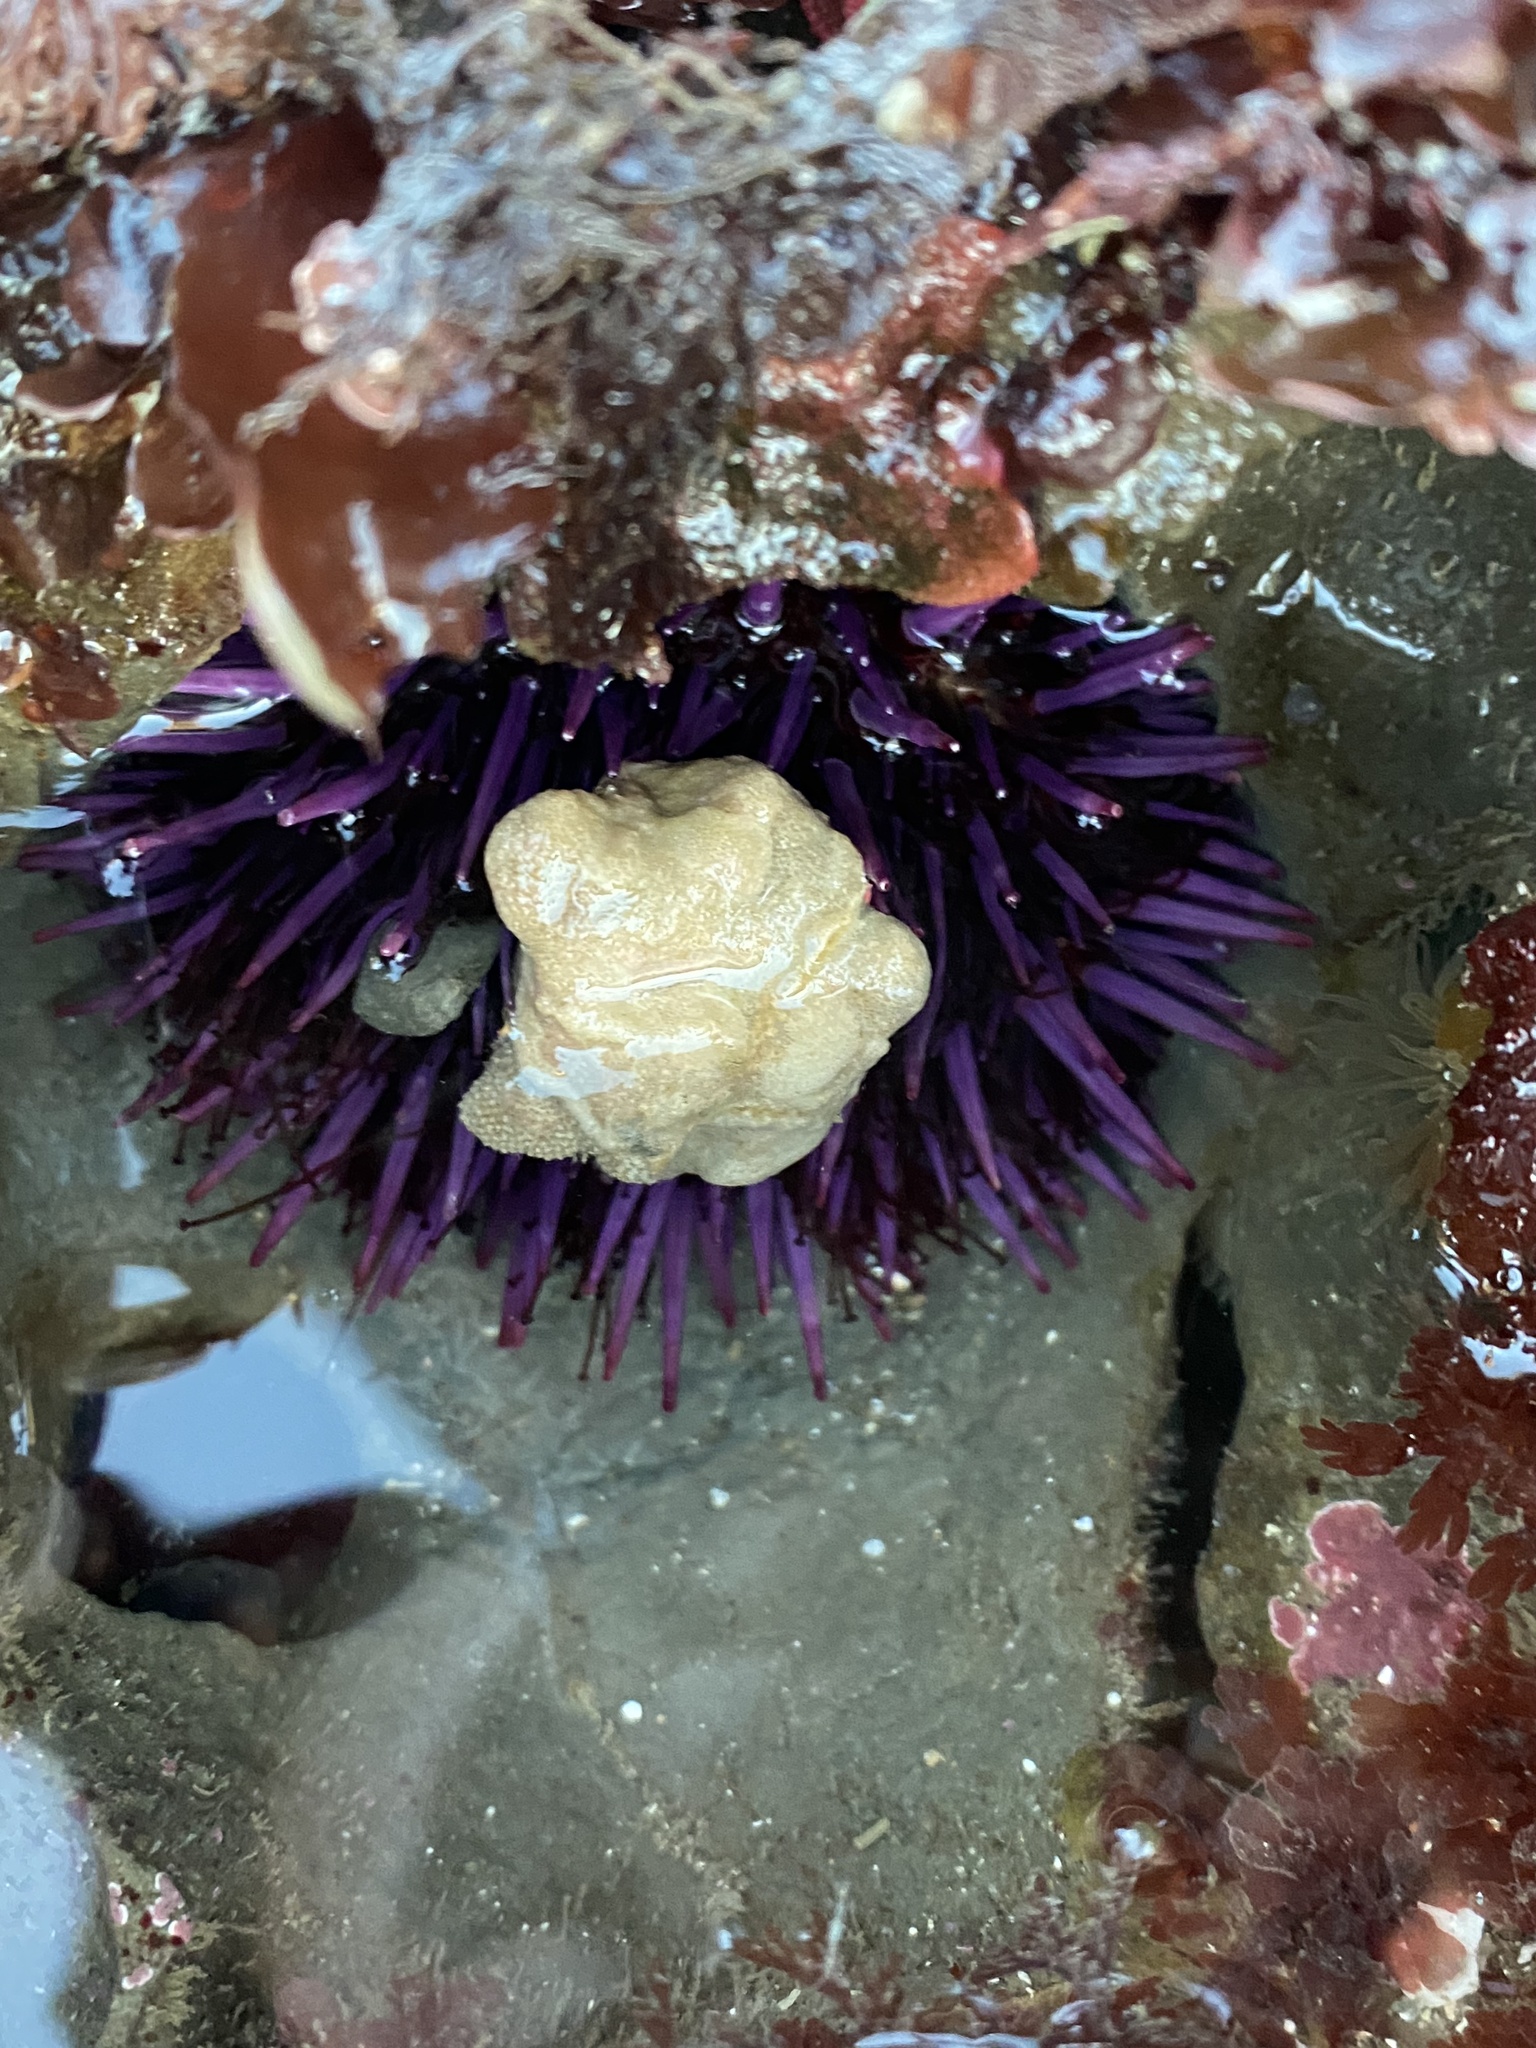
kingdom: Animalia
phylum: Echinodermata
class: Echinoidea
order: Camarodonta
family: Strongylocentrotidae
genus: Strongylocentrotus
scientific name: Strongylocentrotus purpuratus
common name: Purple sea urchin
